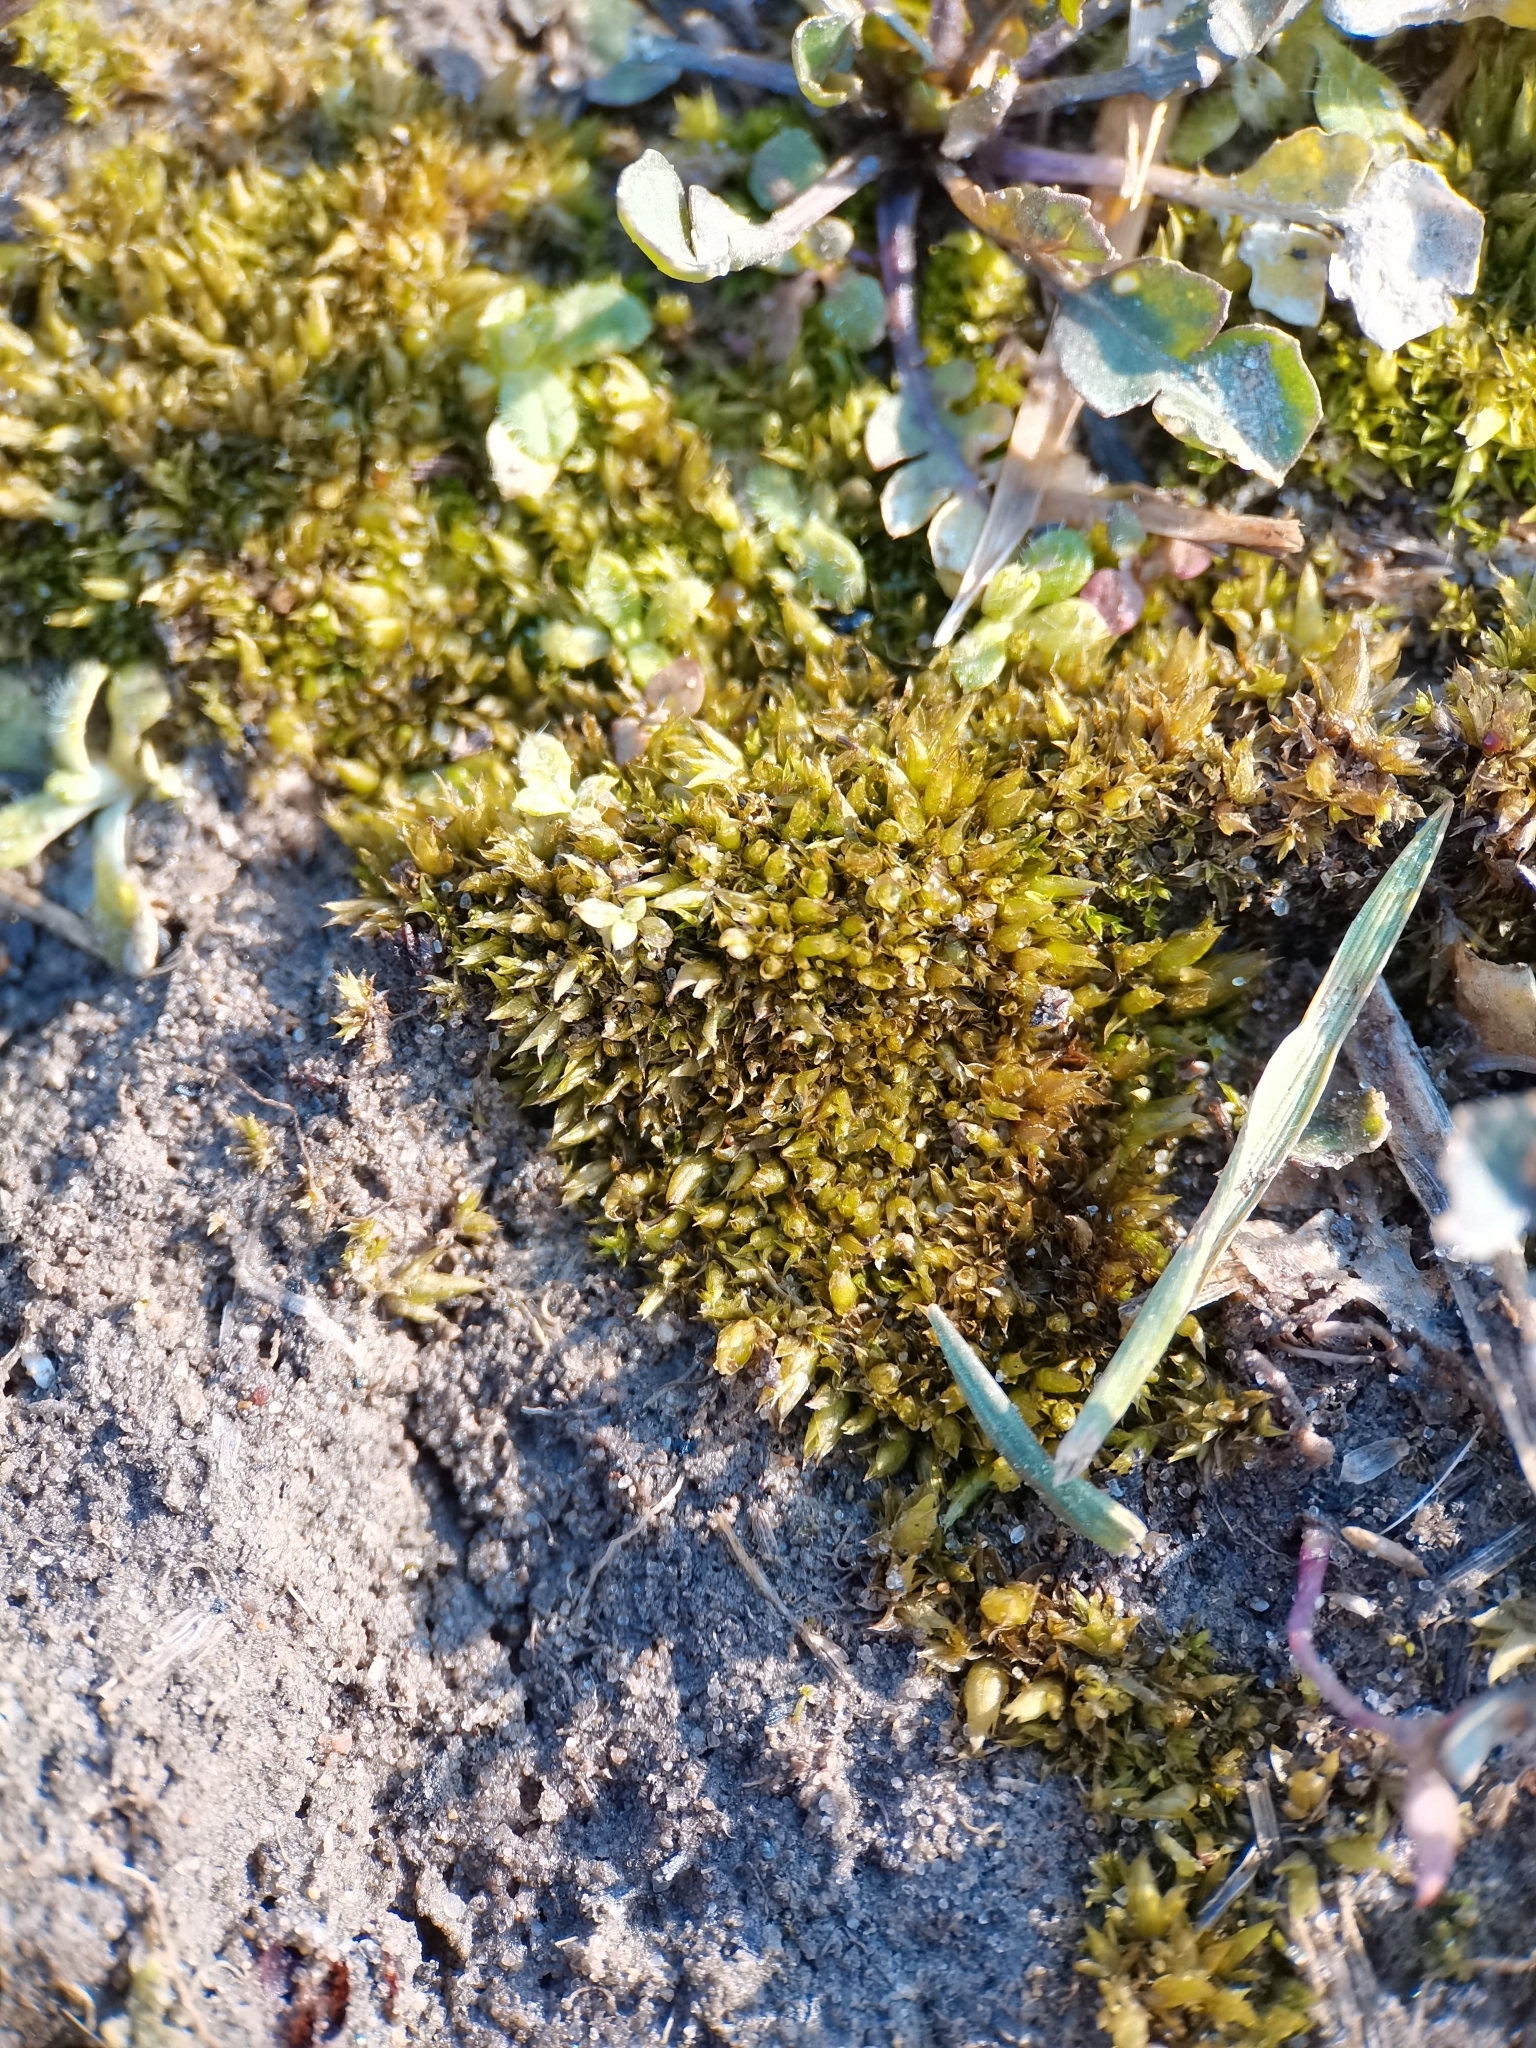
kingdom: Plantae
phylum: Bryophyta
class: Bryopsida
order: Pottiales
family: Pottiaceae
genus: Tortula
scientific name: Tortula acaulon
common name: Cuspidate earth moss
